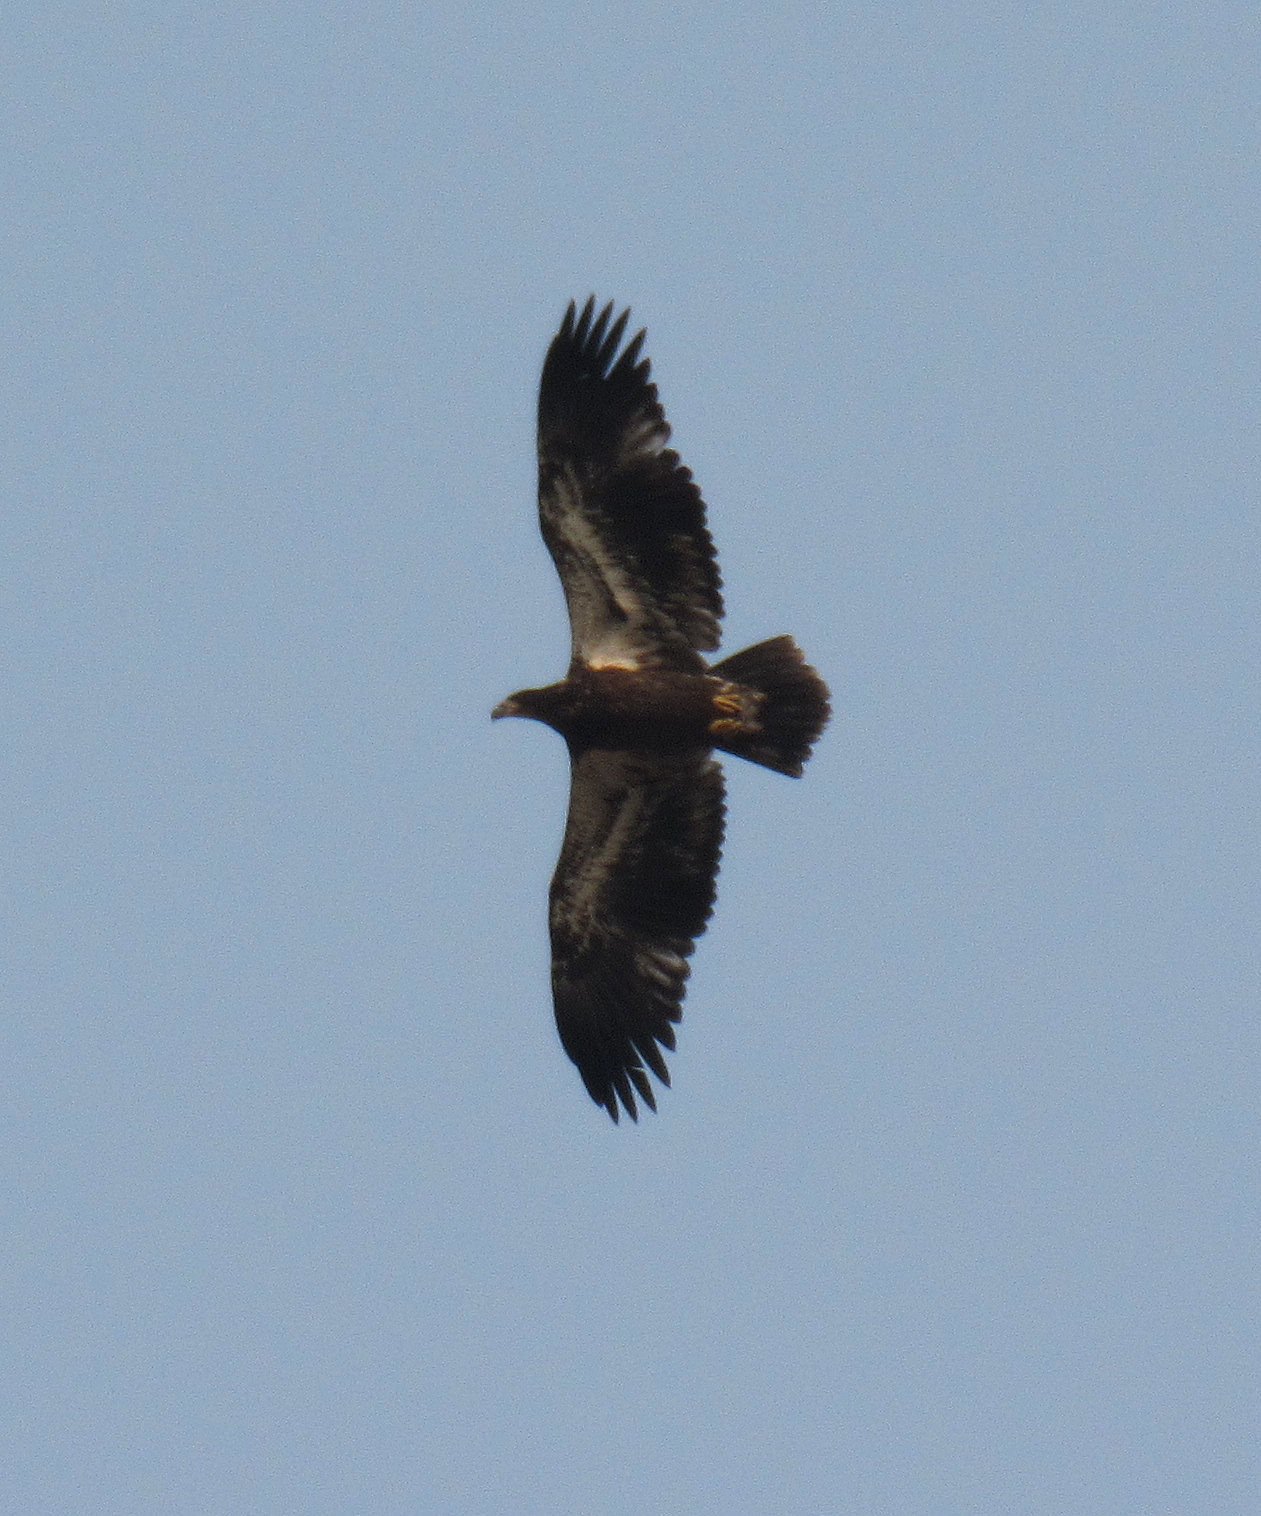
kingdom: Animalia
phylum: Chordata
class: Aves
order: Accipitriformes
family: Accipitridae
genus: Haliaeetus
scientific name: Haliaeetus leucocephalus
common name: Bald eagle
